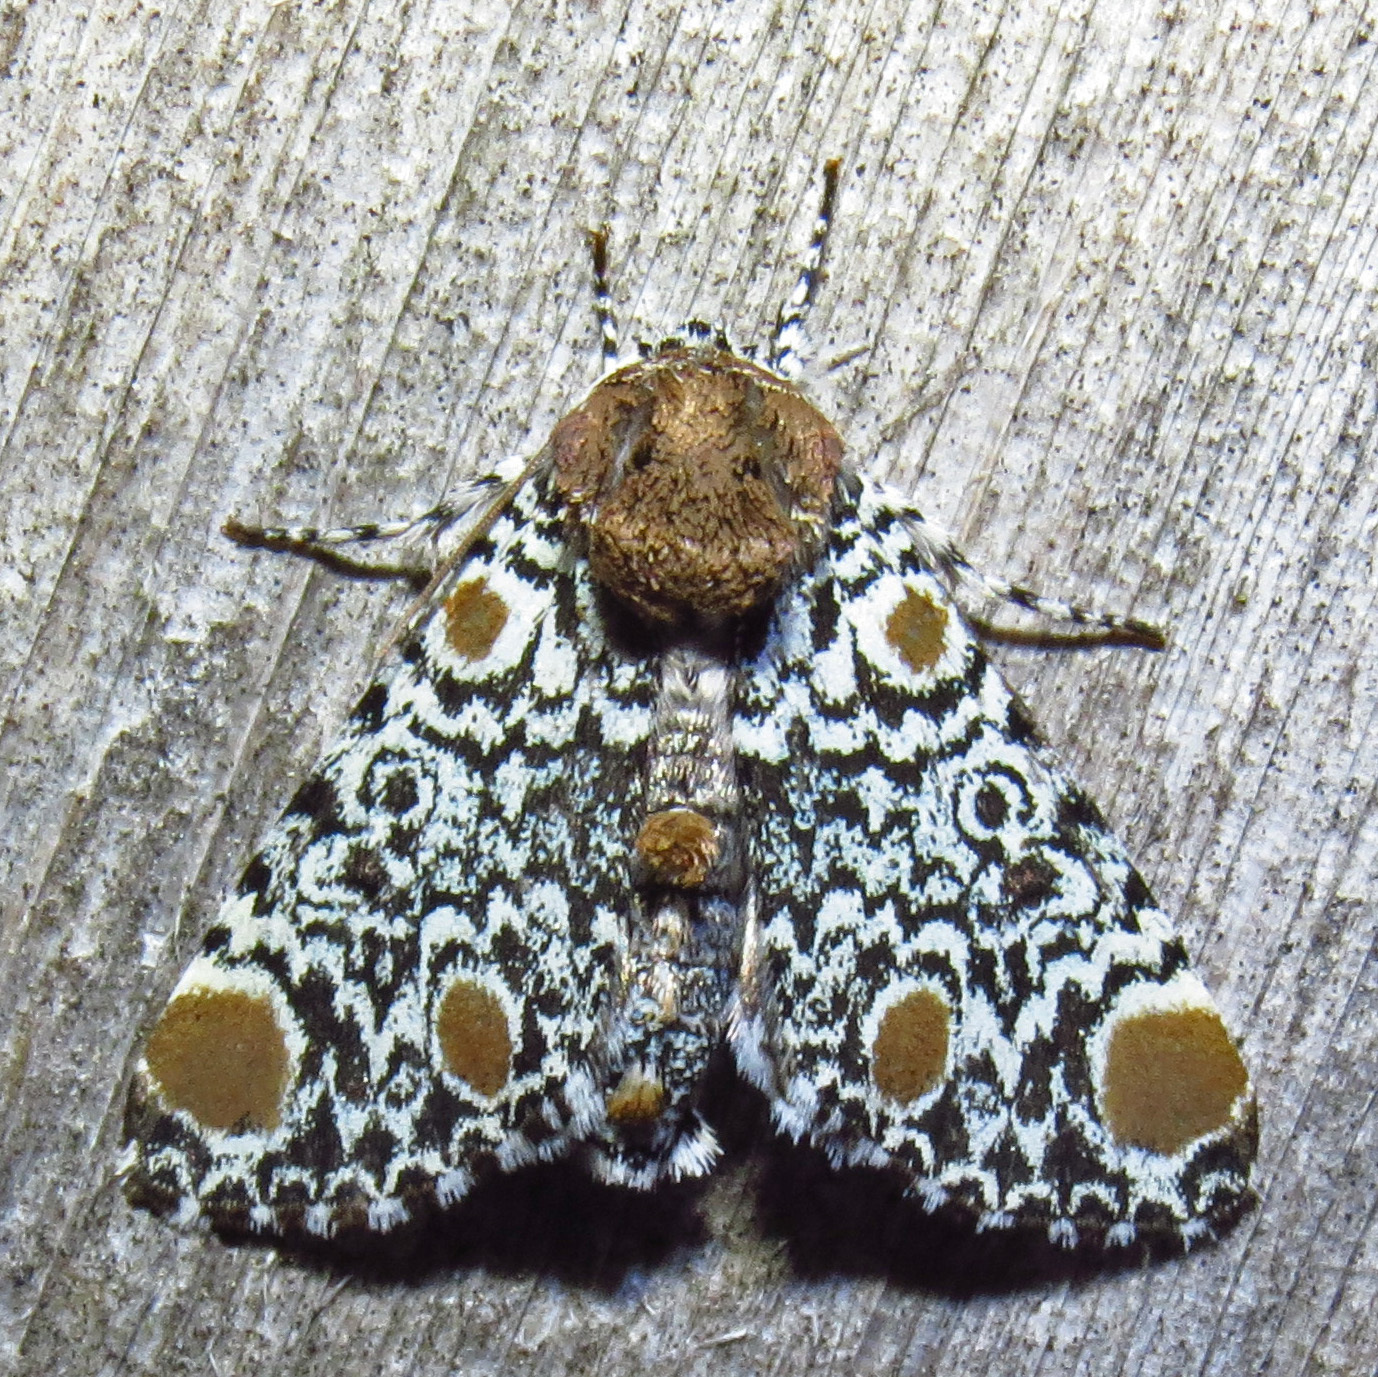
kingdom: Animalia
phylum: Arthropoda
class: Insecta
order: Lepidoptera
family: Noctuidae
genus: Harrisimemna
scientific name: Harrisimemna trisignata
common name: Harris threespot
